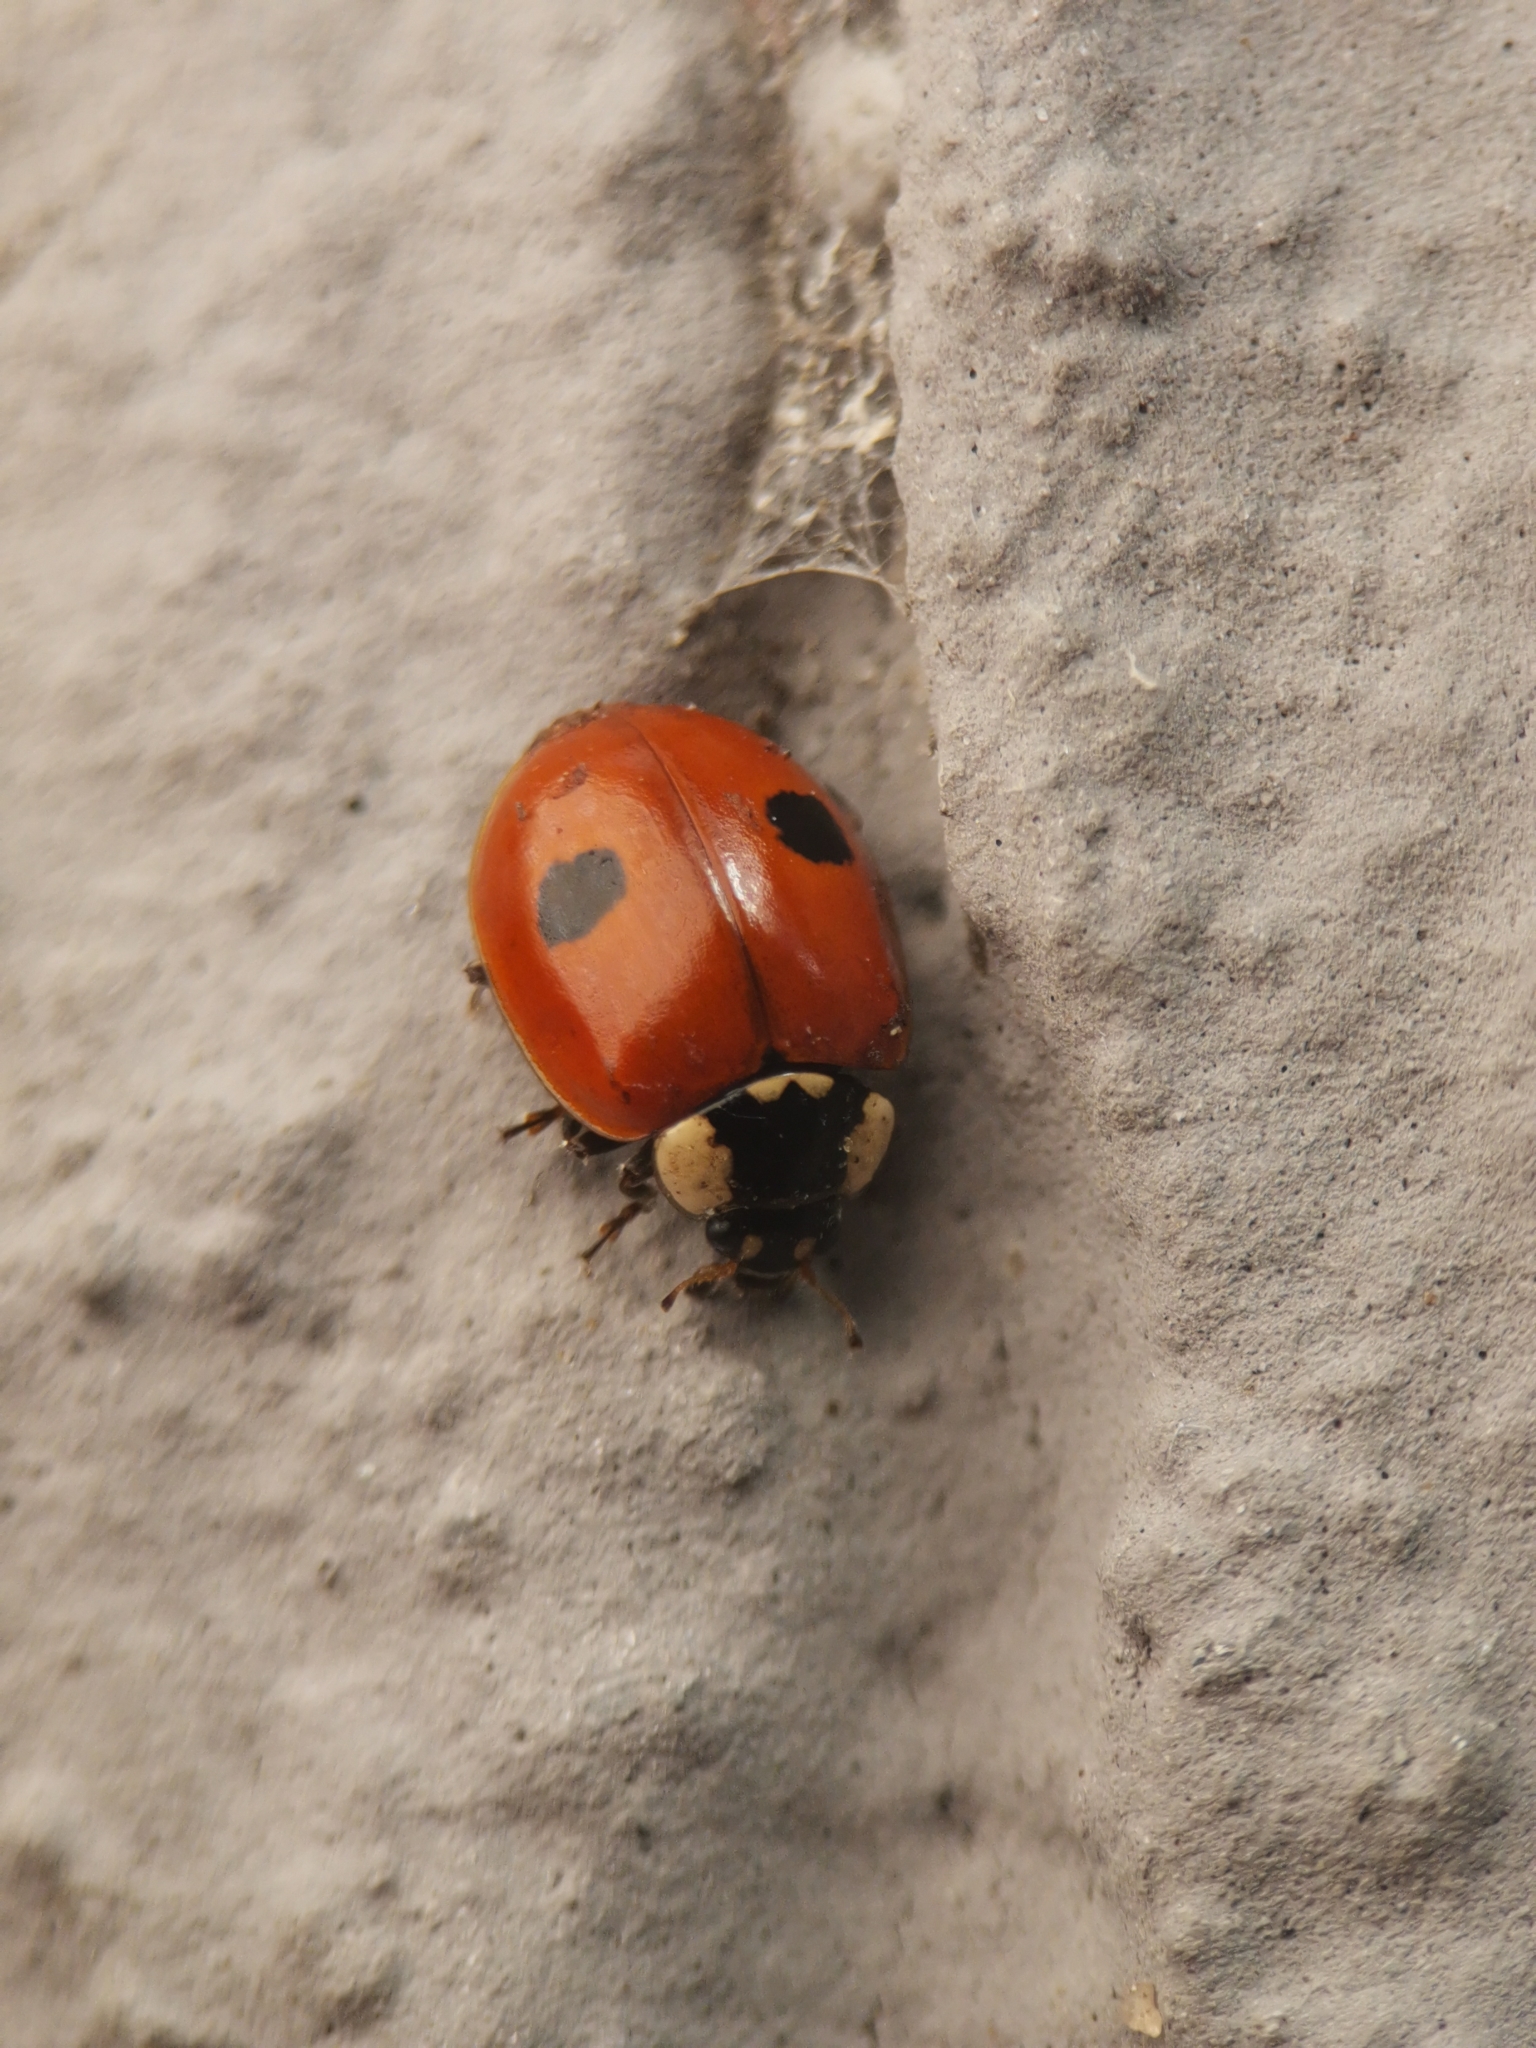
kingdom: Animalia
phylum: Arthropoda
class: Insecta
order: Coleoptera
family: Coccinellidae
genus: Adalia
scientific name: Adalia bipunctata
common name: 2-spot ladybird
